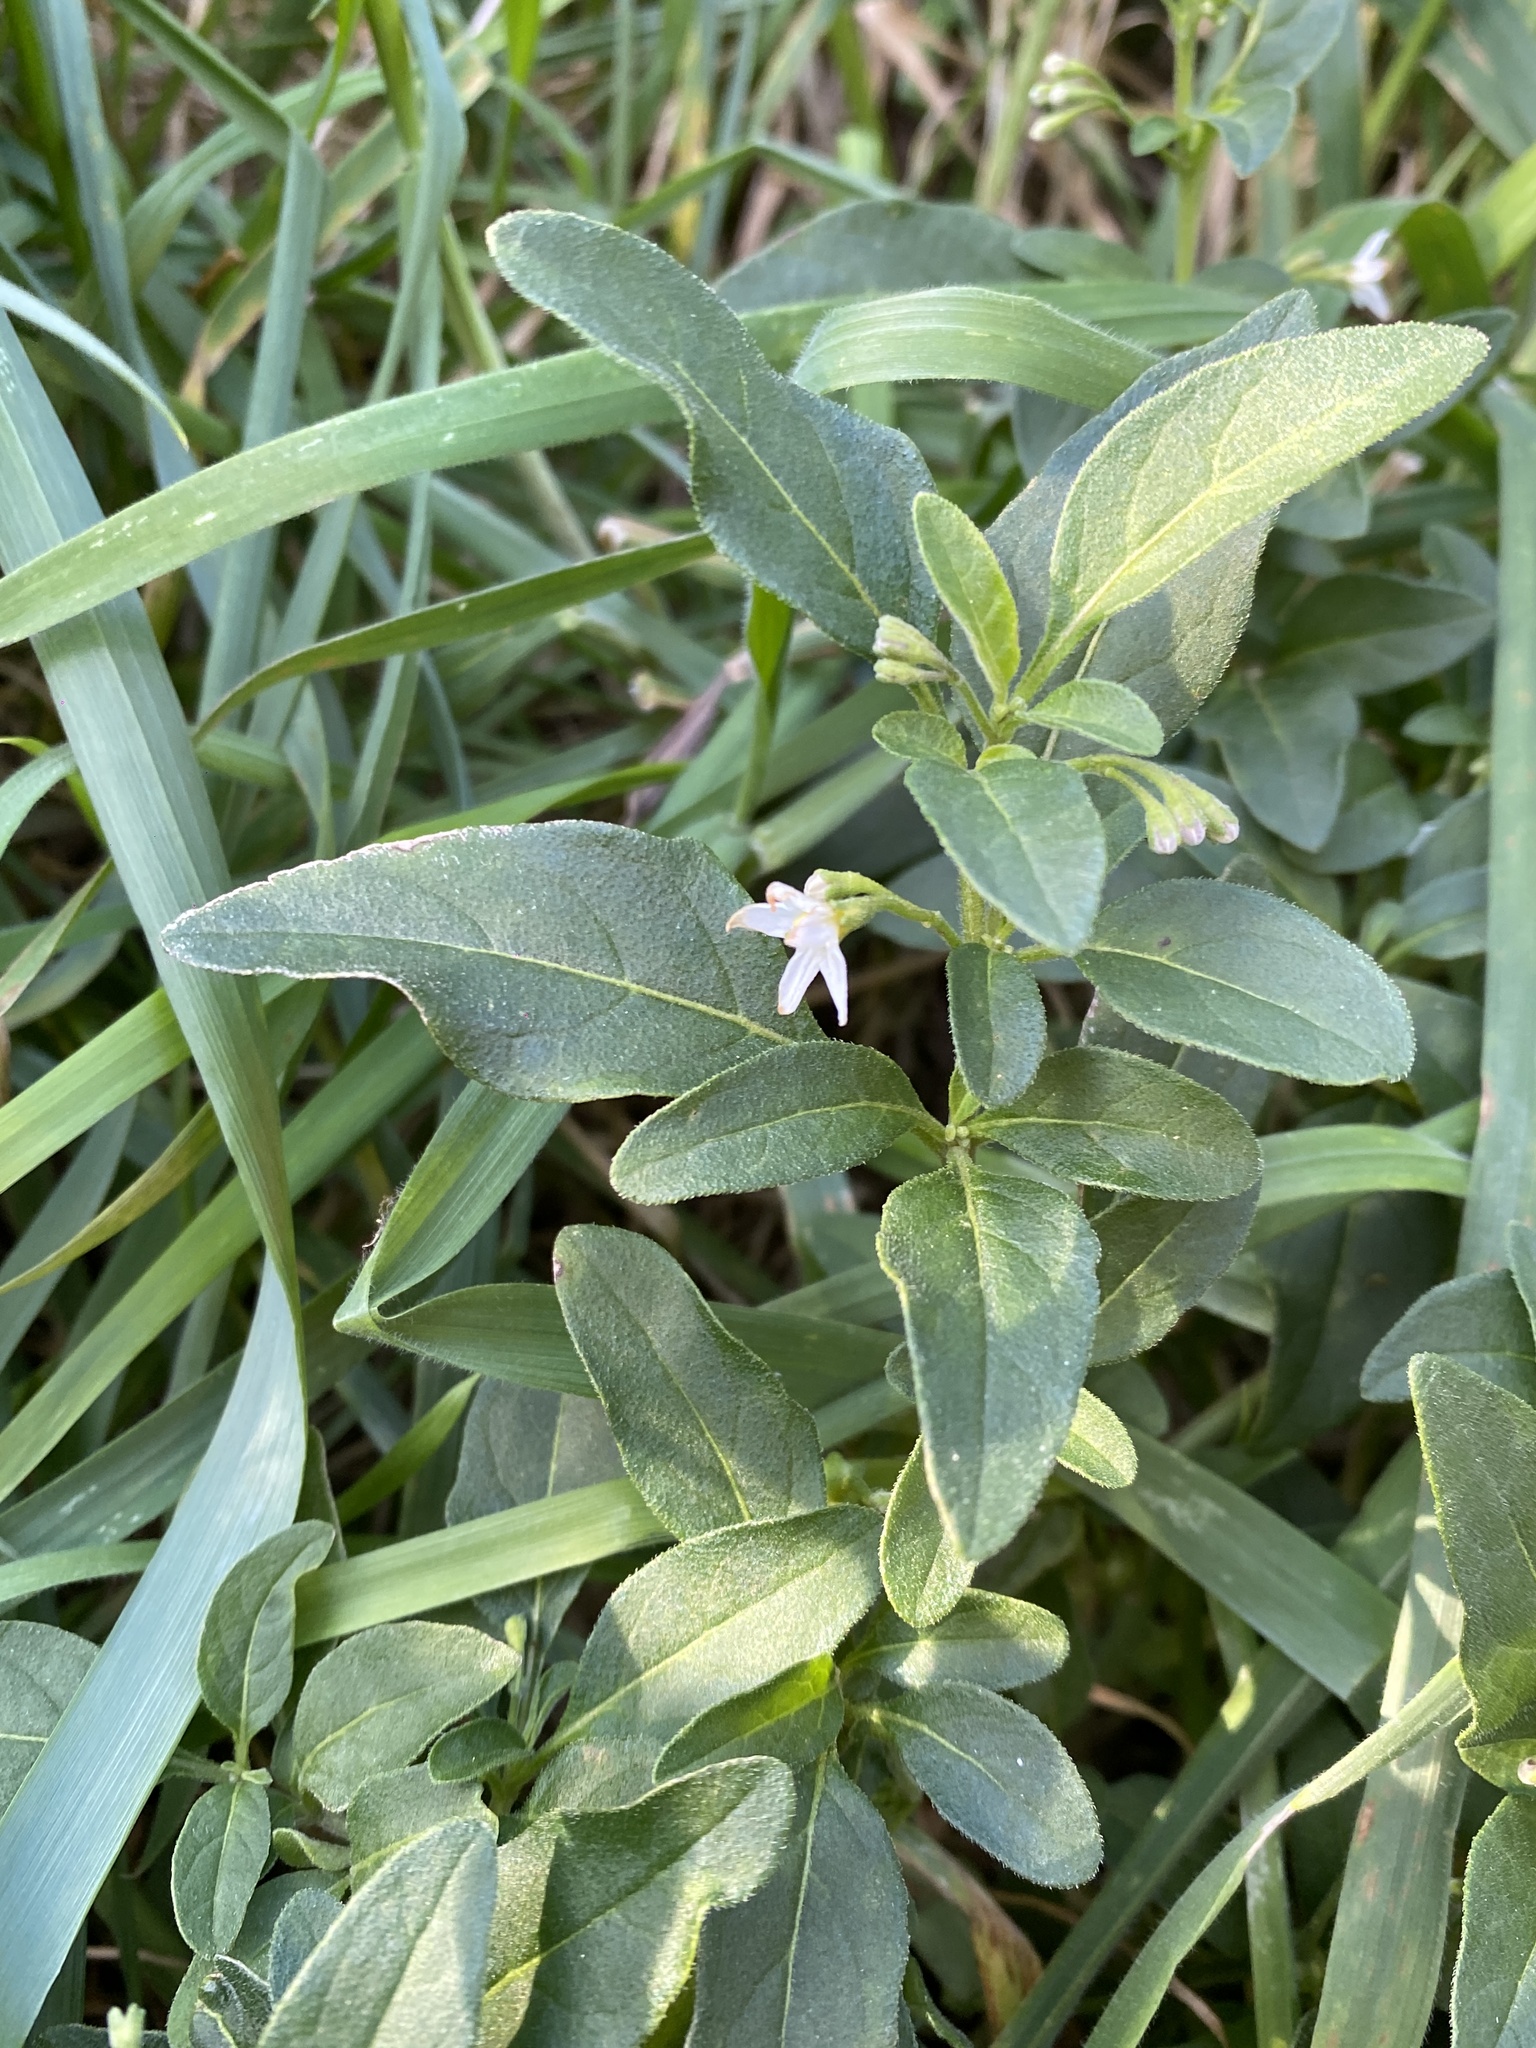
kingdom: Plantae
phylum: Tracheophyta
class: Magnoliopsida
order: Solanales
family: Solanaceae
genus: Solanum
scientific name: Solanum chenopodioides
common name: Tall nightshade
